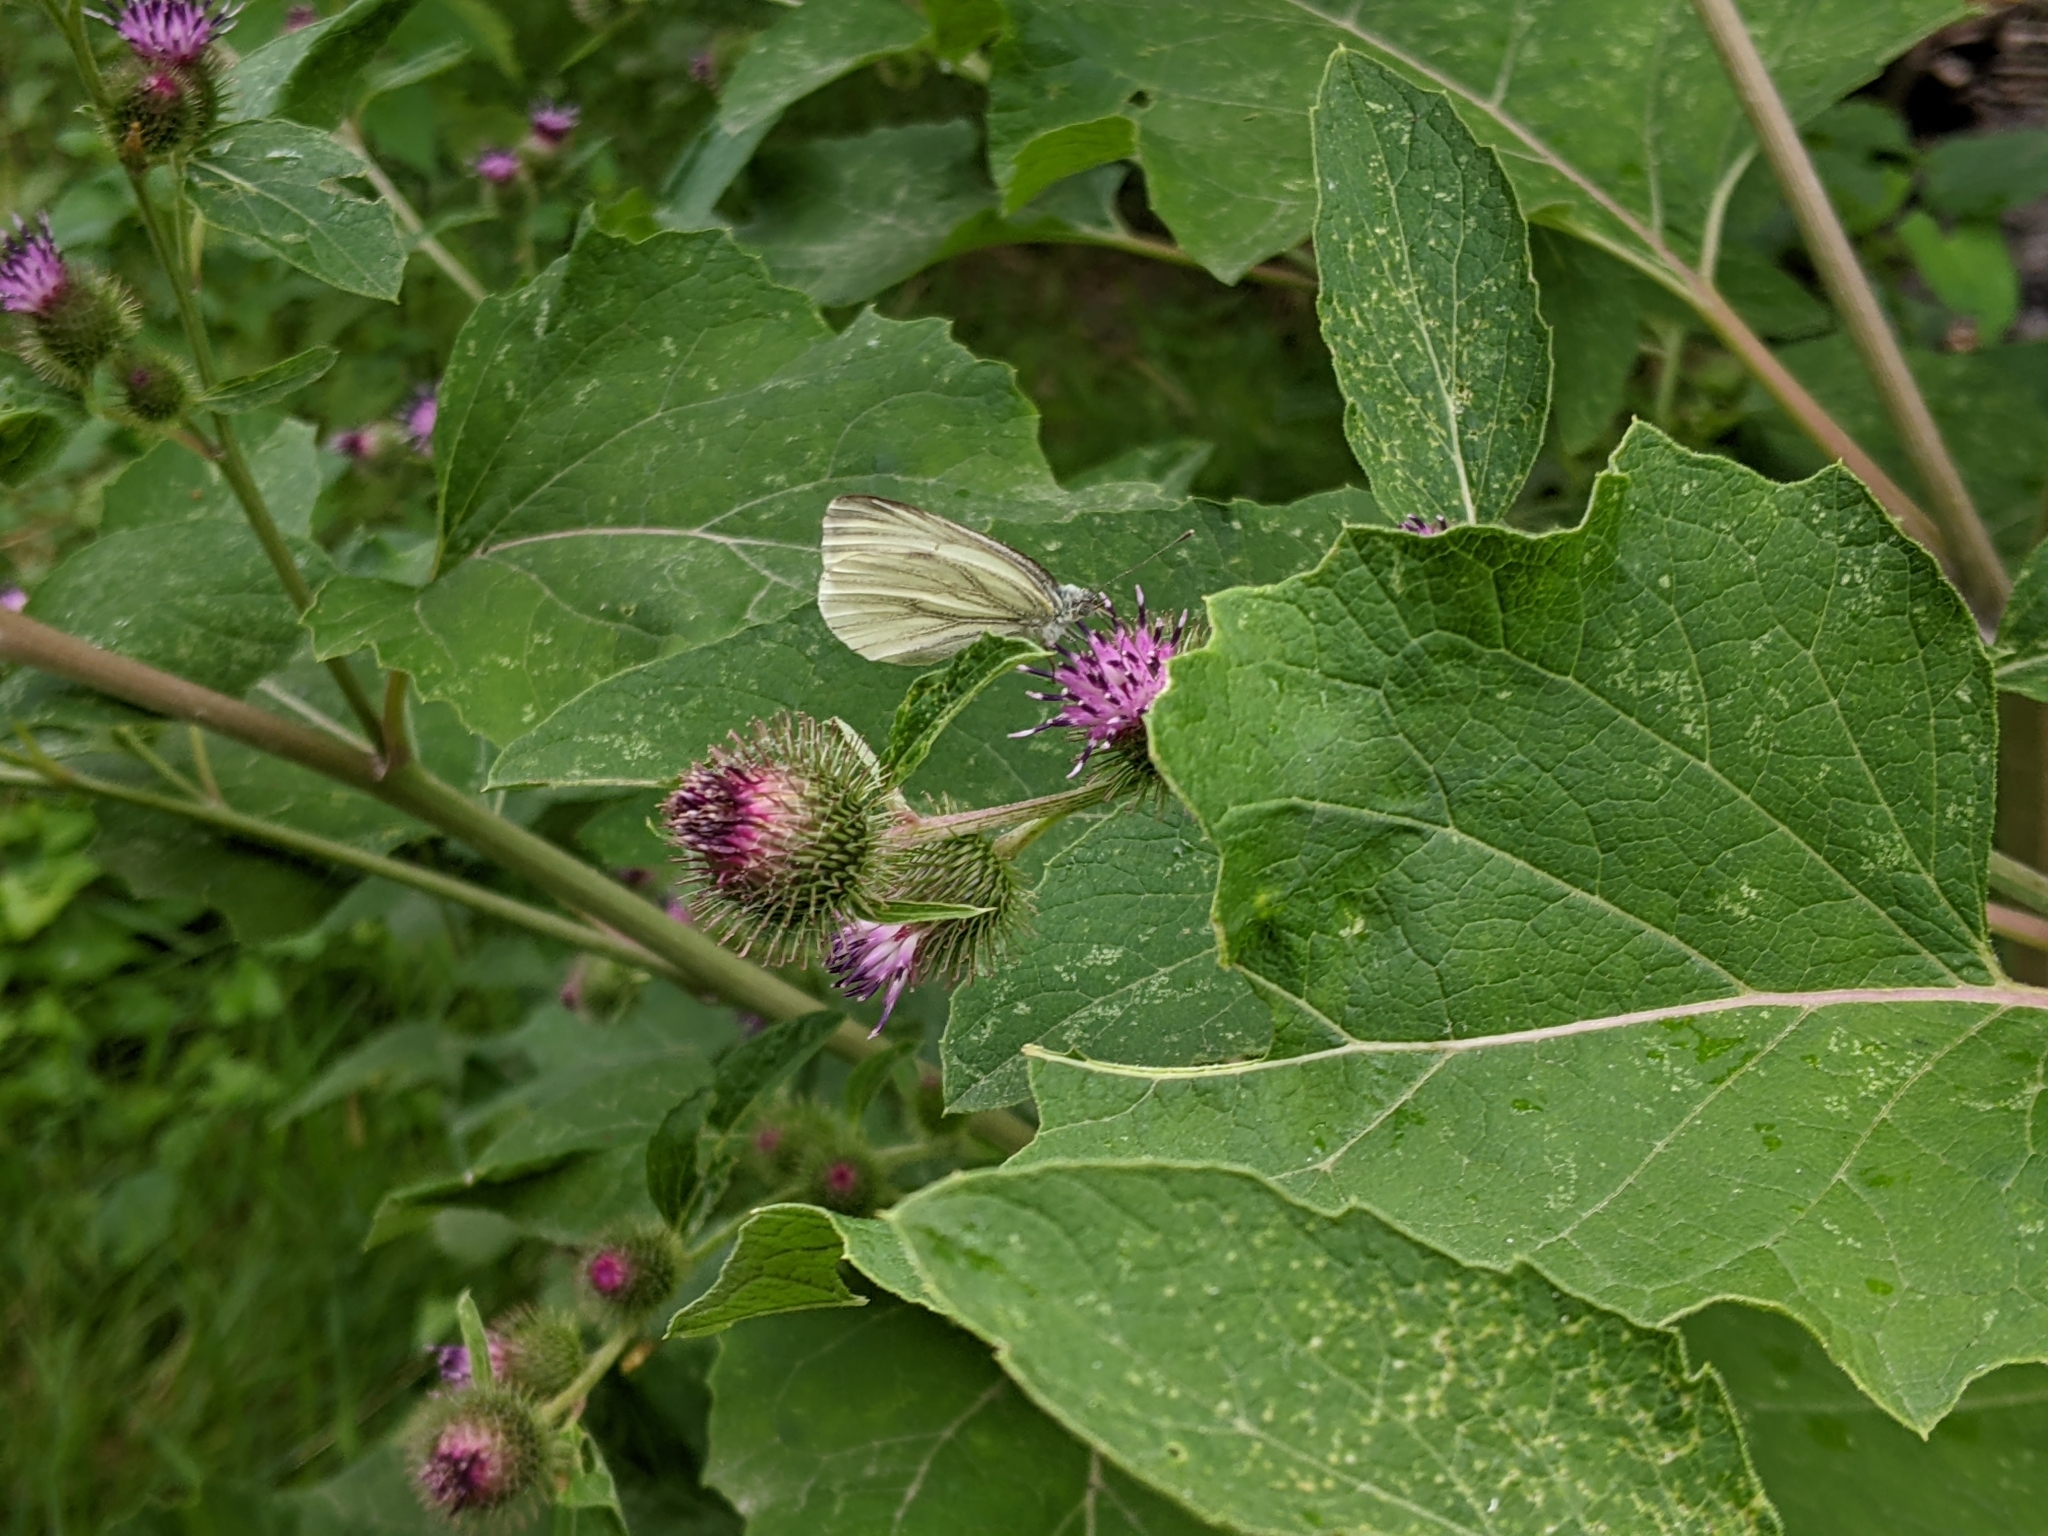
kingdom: Animalia
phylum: Arthropoda
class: Insecta
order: Lepidoptera
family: Pieridae
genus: Pieris
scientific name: Pieris napi
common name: Green-veined white
